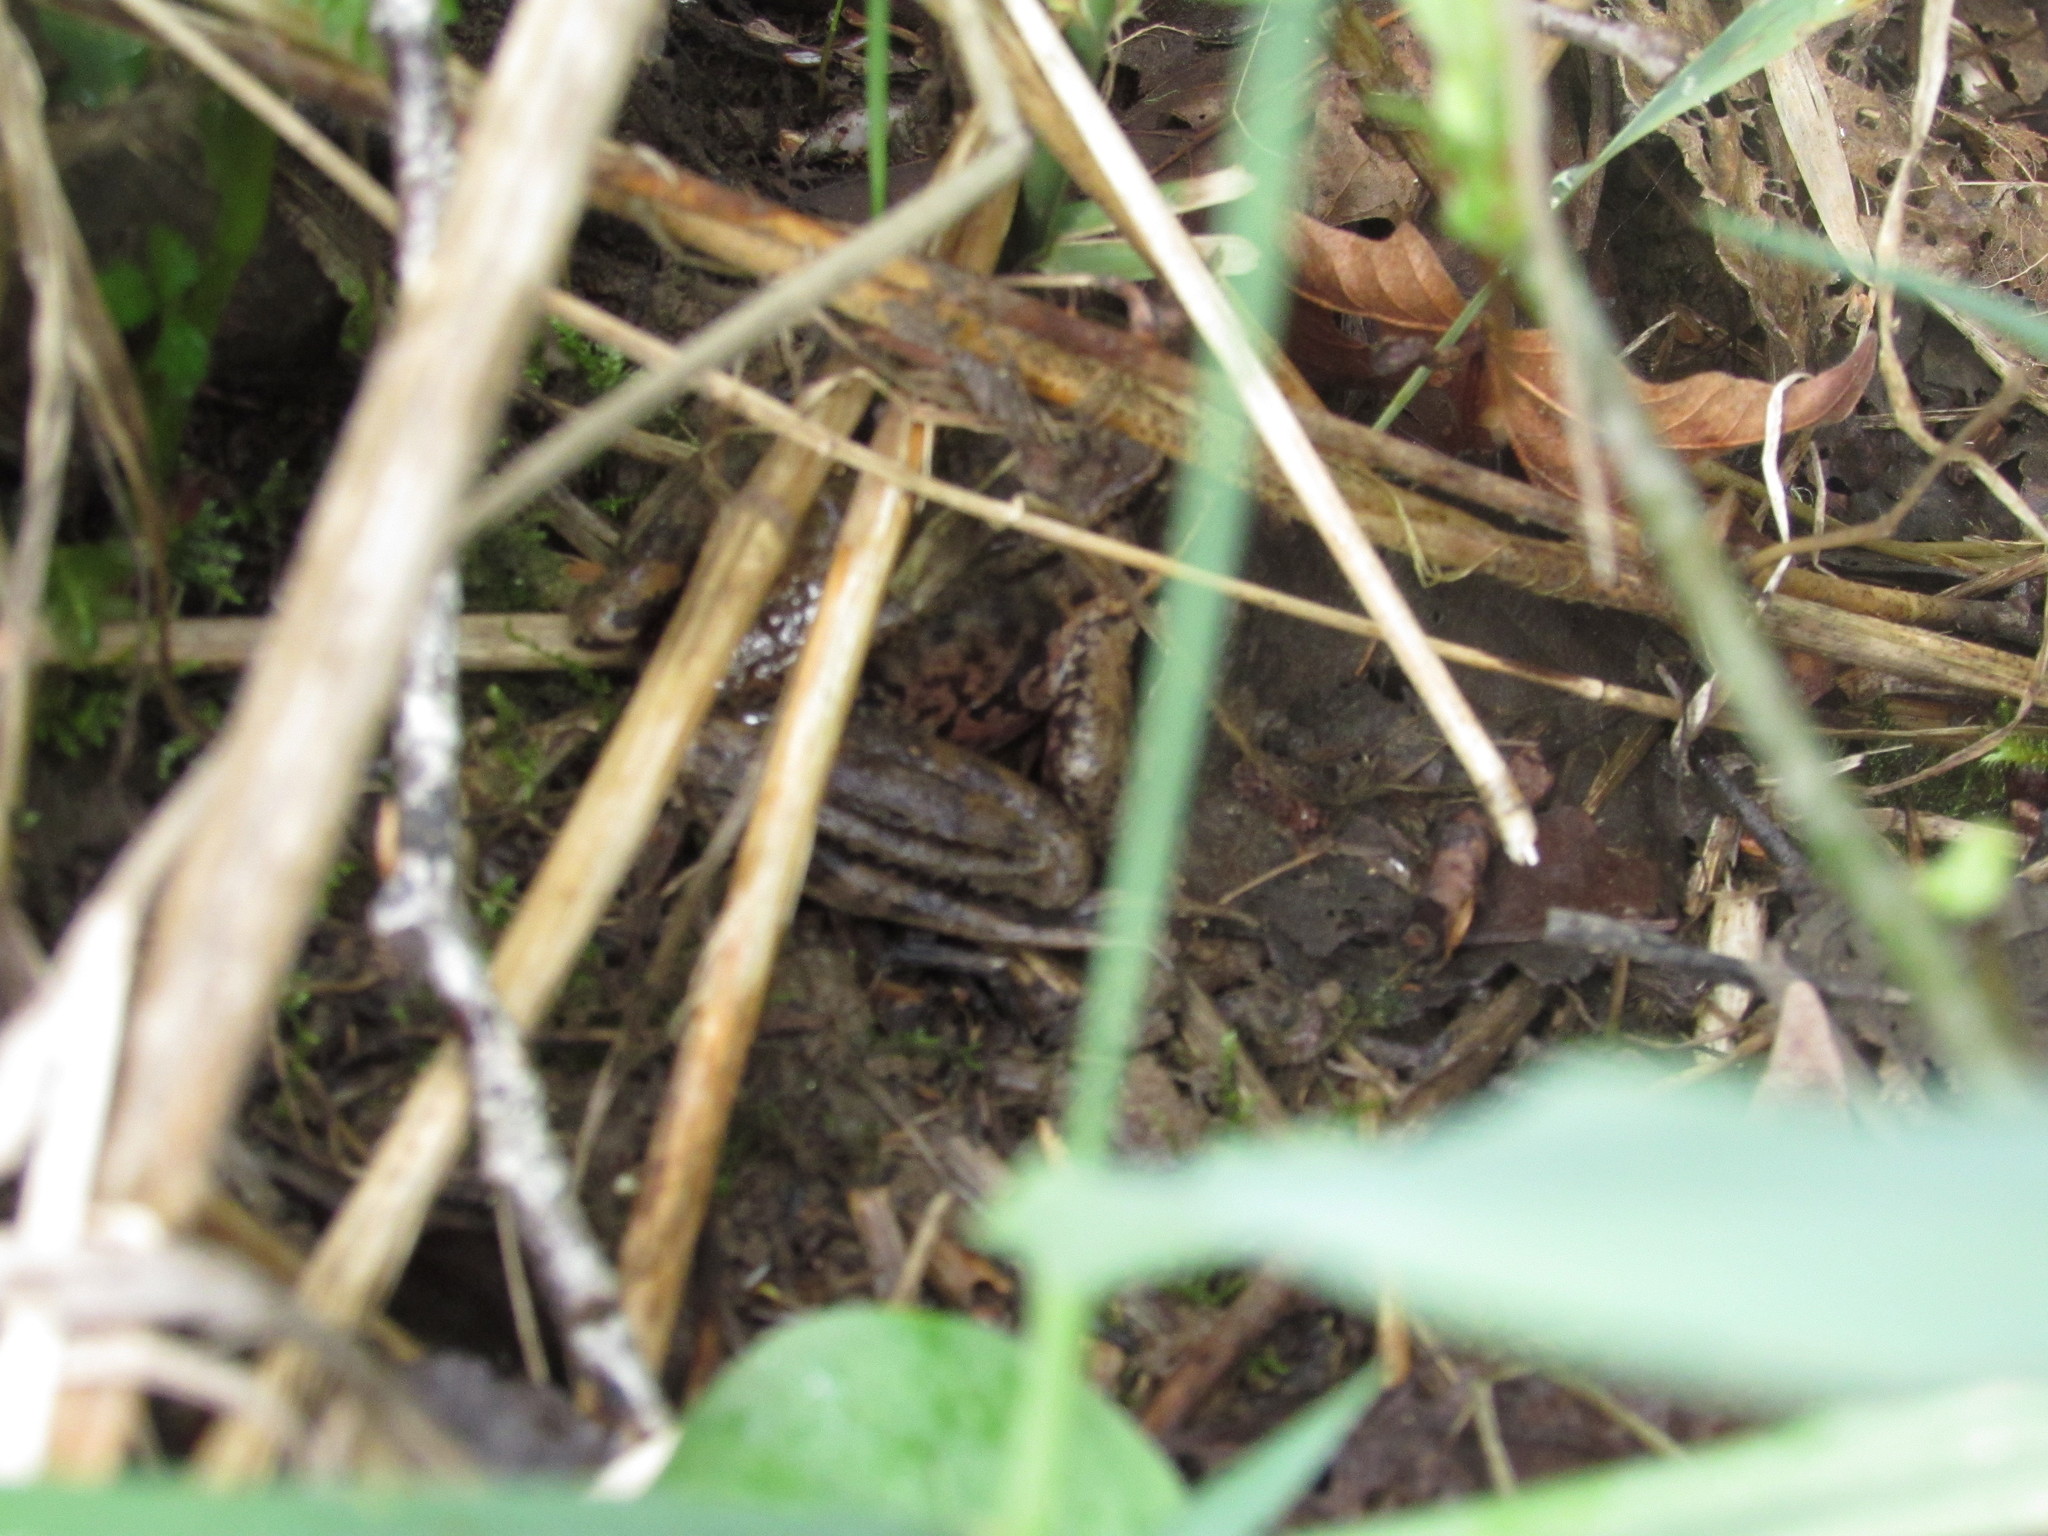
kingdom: Animalia
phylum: Chordata
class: Amphibia
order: Anura
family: Ranidae
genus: Rana
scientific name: Rana aurora
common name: Red-legged frog
